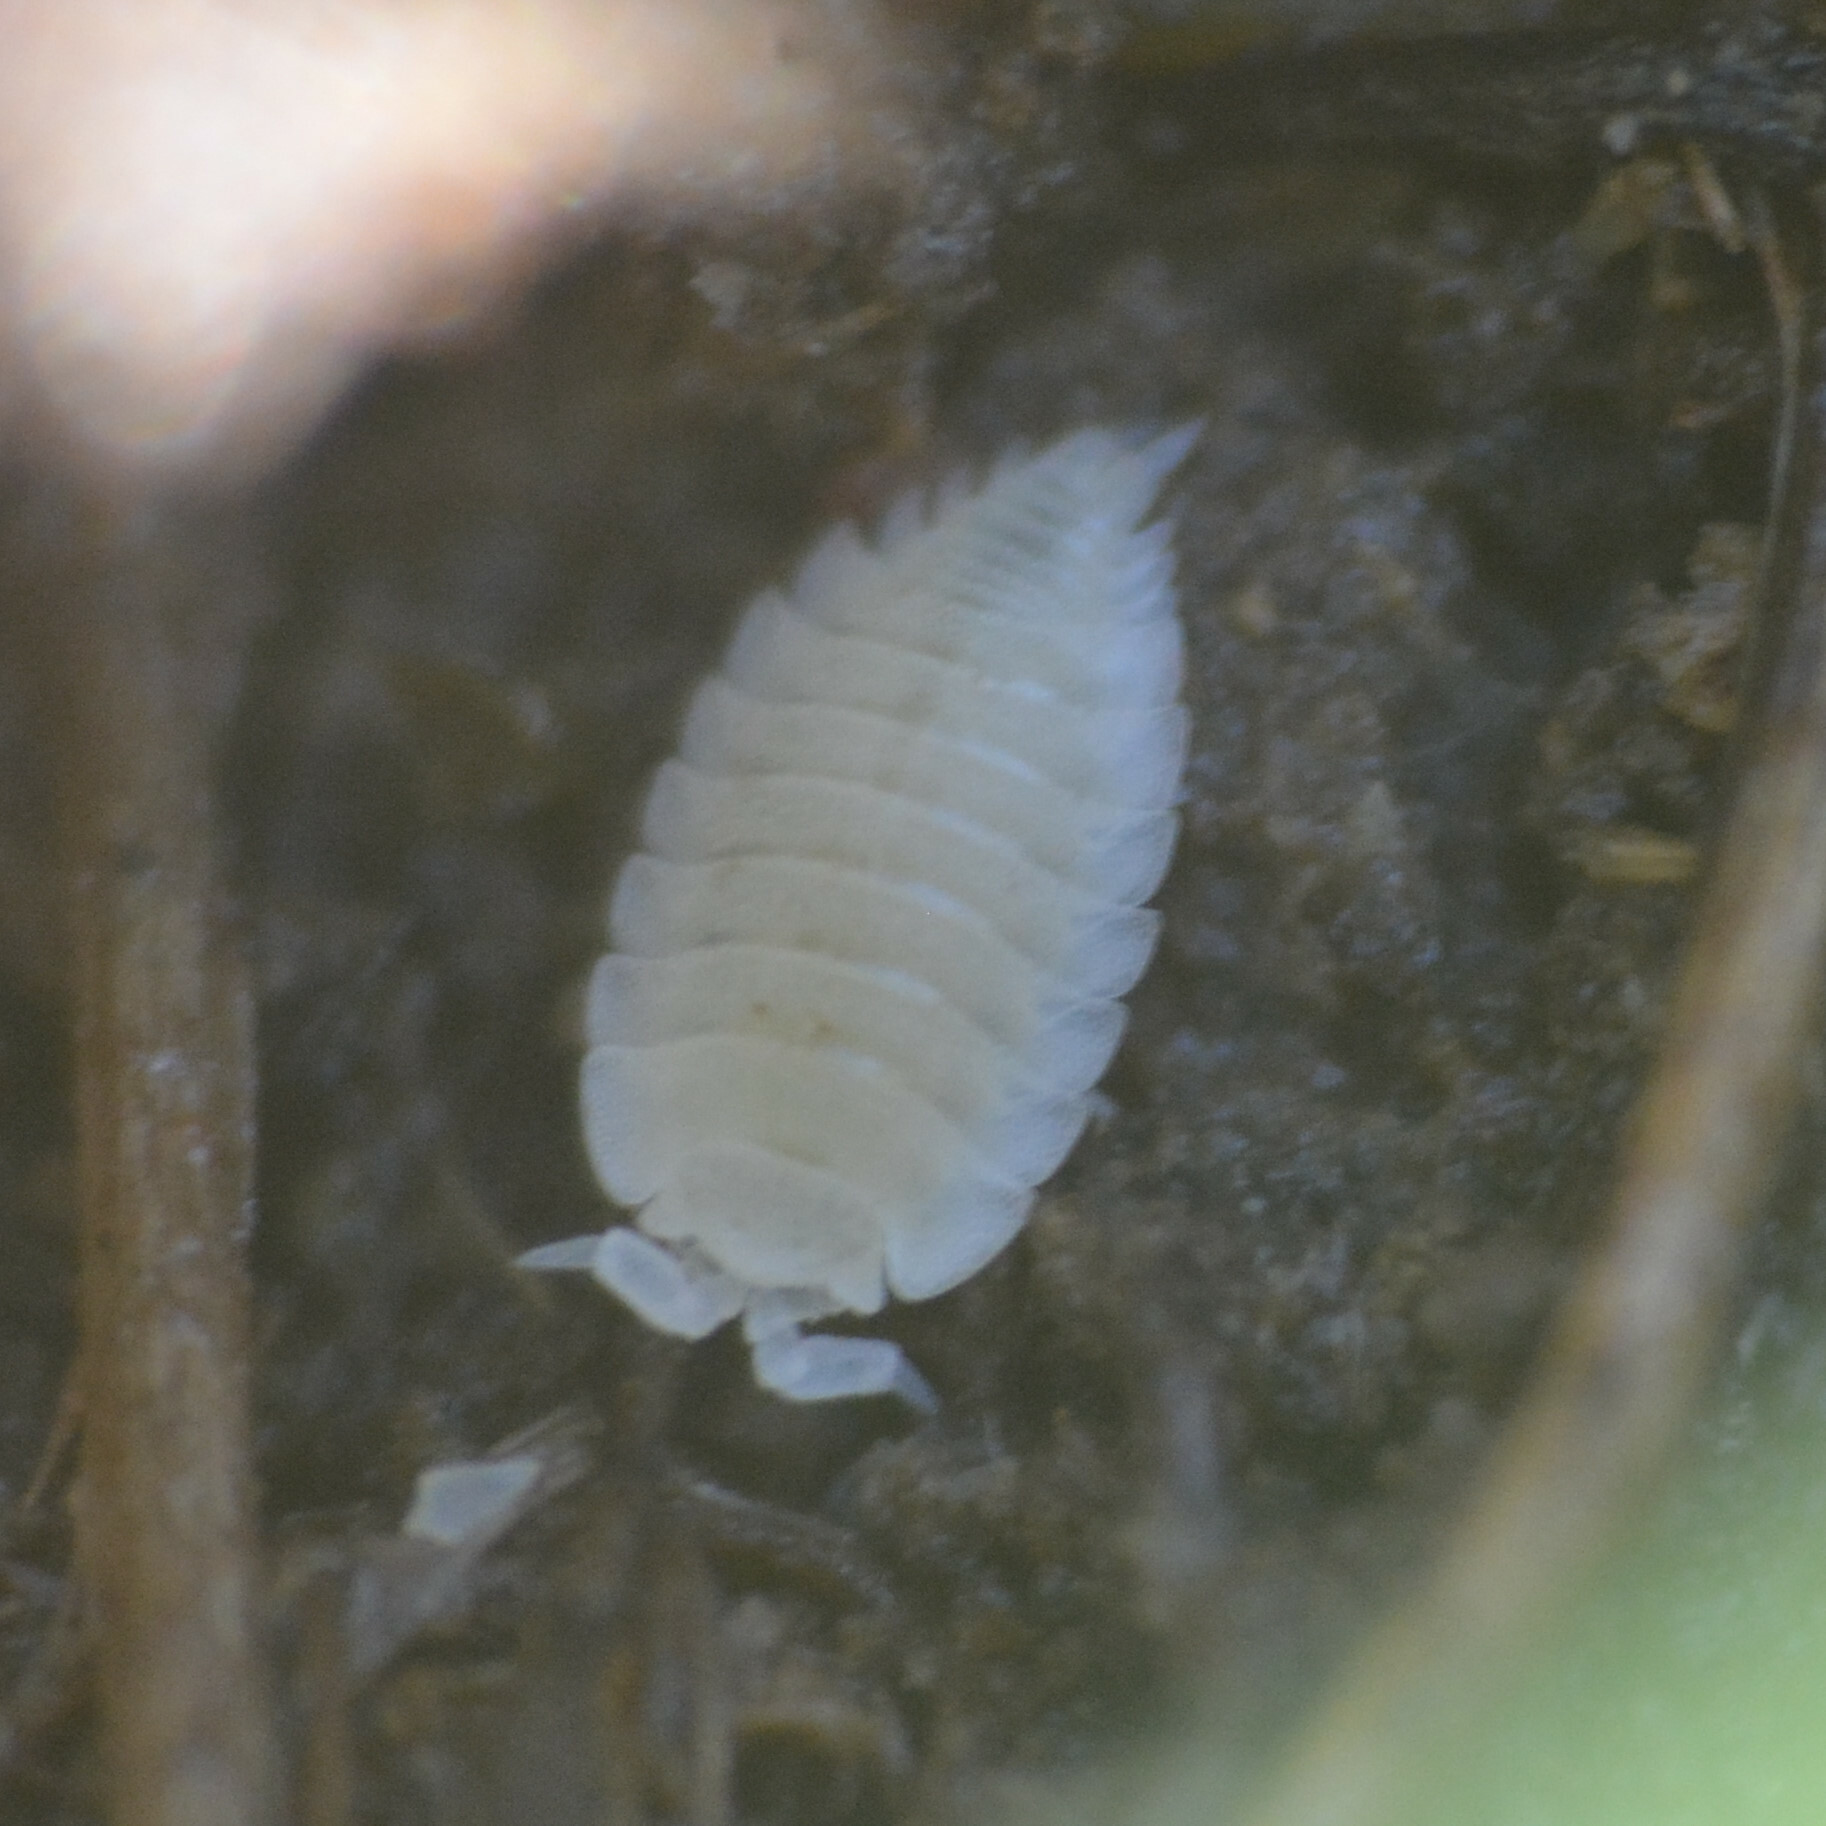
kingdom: Animalia
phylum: Arthropoda
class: Malacostraca
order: Isopoda
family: Platyarthridae
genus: Platyarthrus
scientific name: Platyarthrus hoffmannseggii
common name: Ant woodlouse
